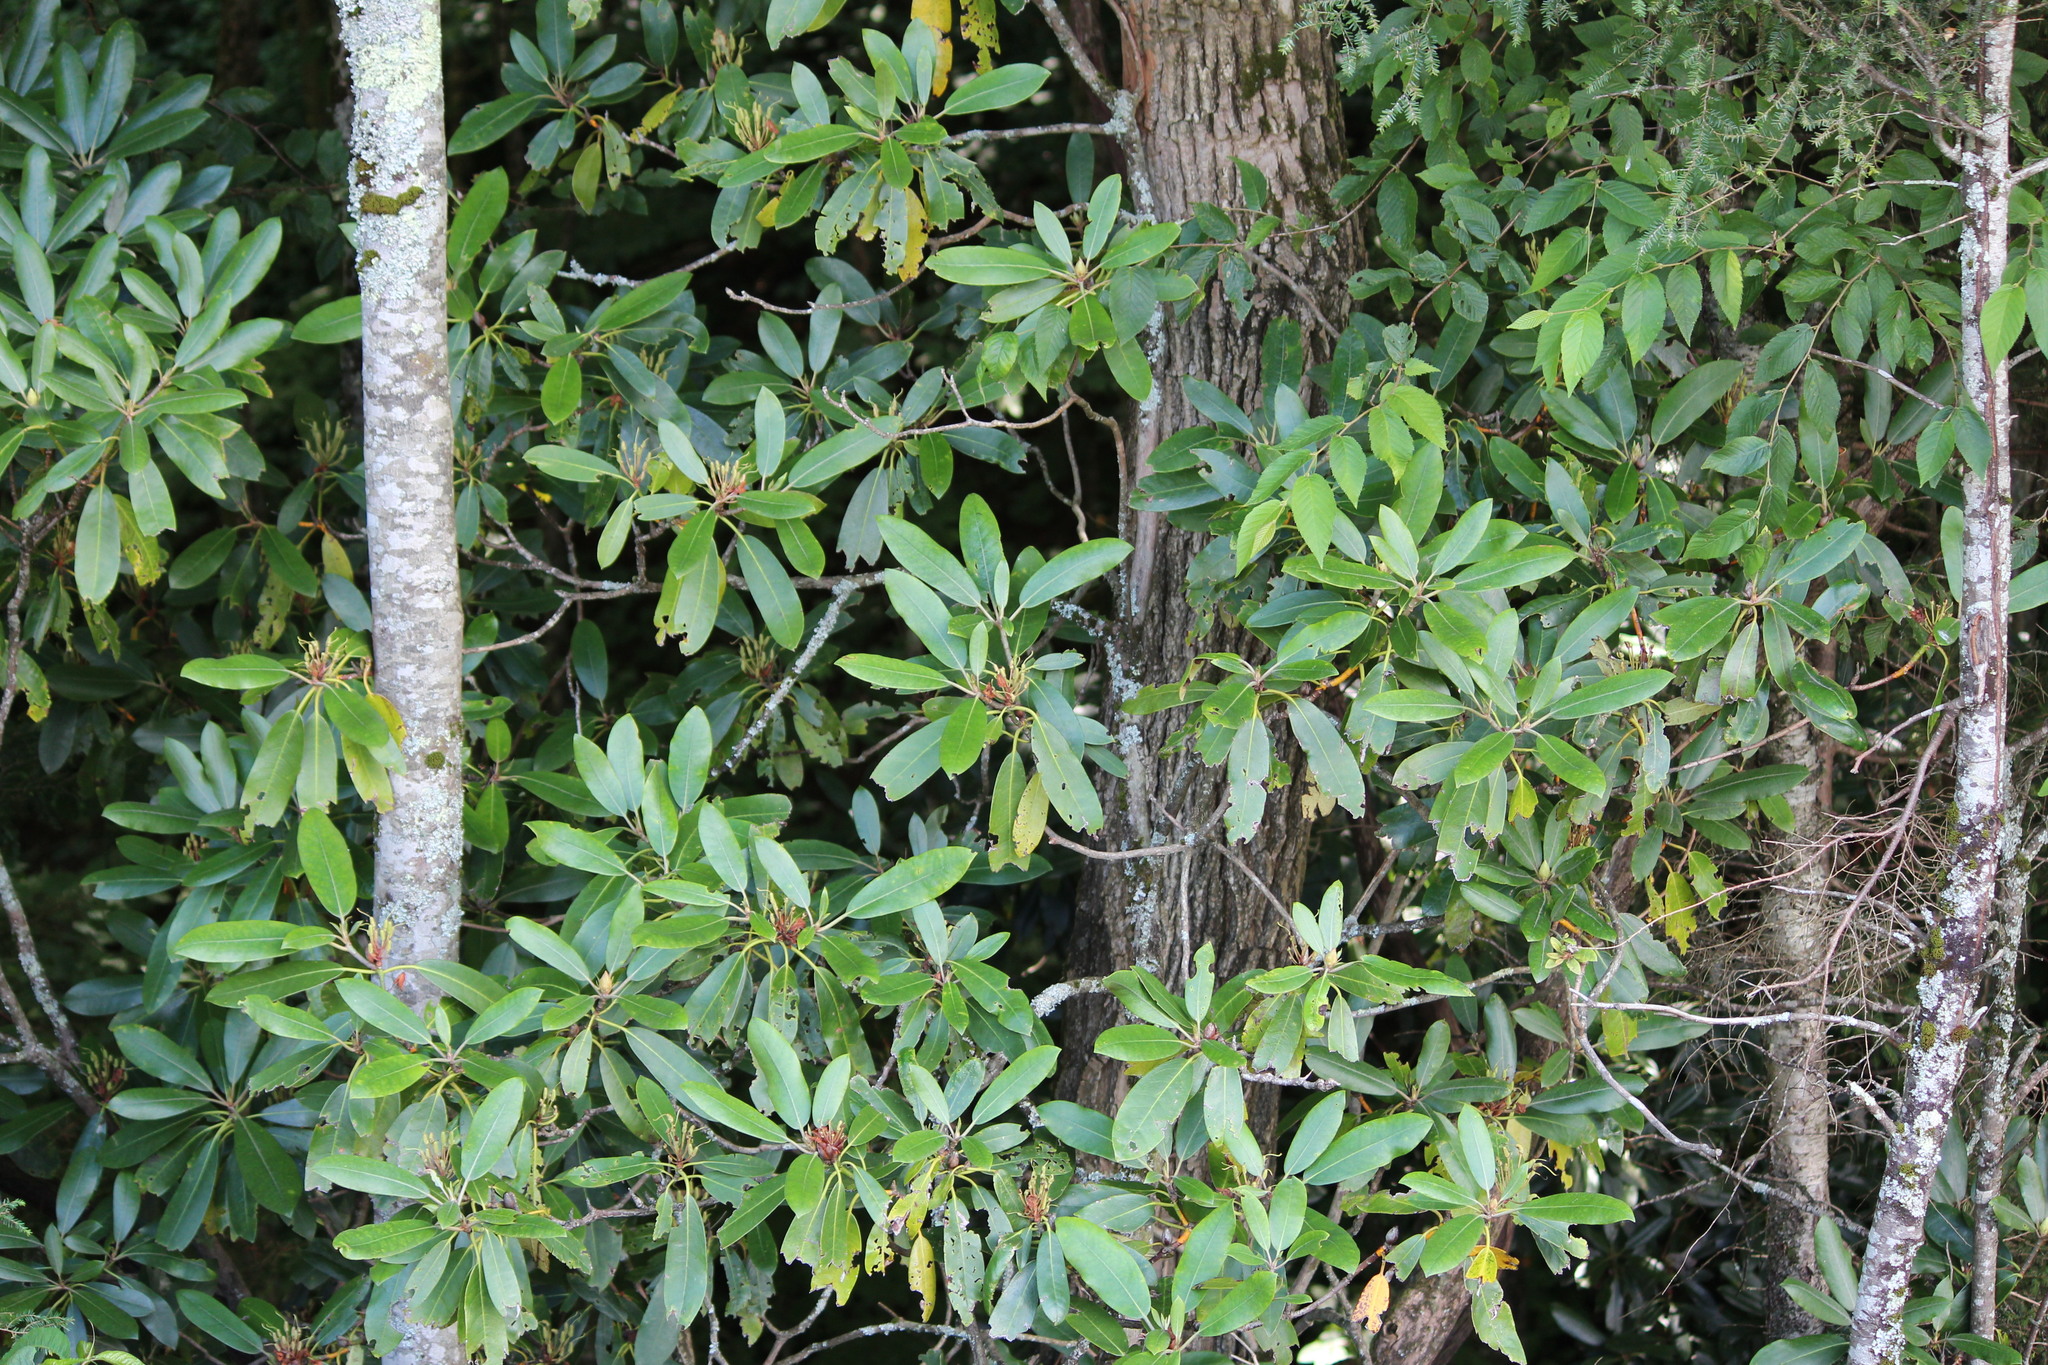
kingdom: Plantae
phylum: Tracheophyta
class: Magnoliopsida
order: Ericales
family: Ericaceae
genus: Rhododendron
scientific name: Rhododendron maximum
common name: Great rhododendron
